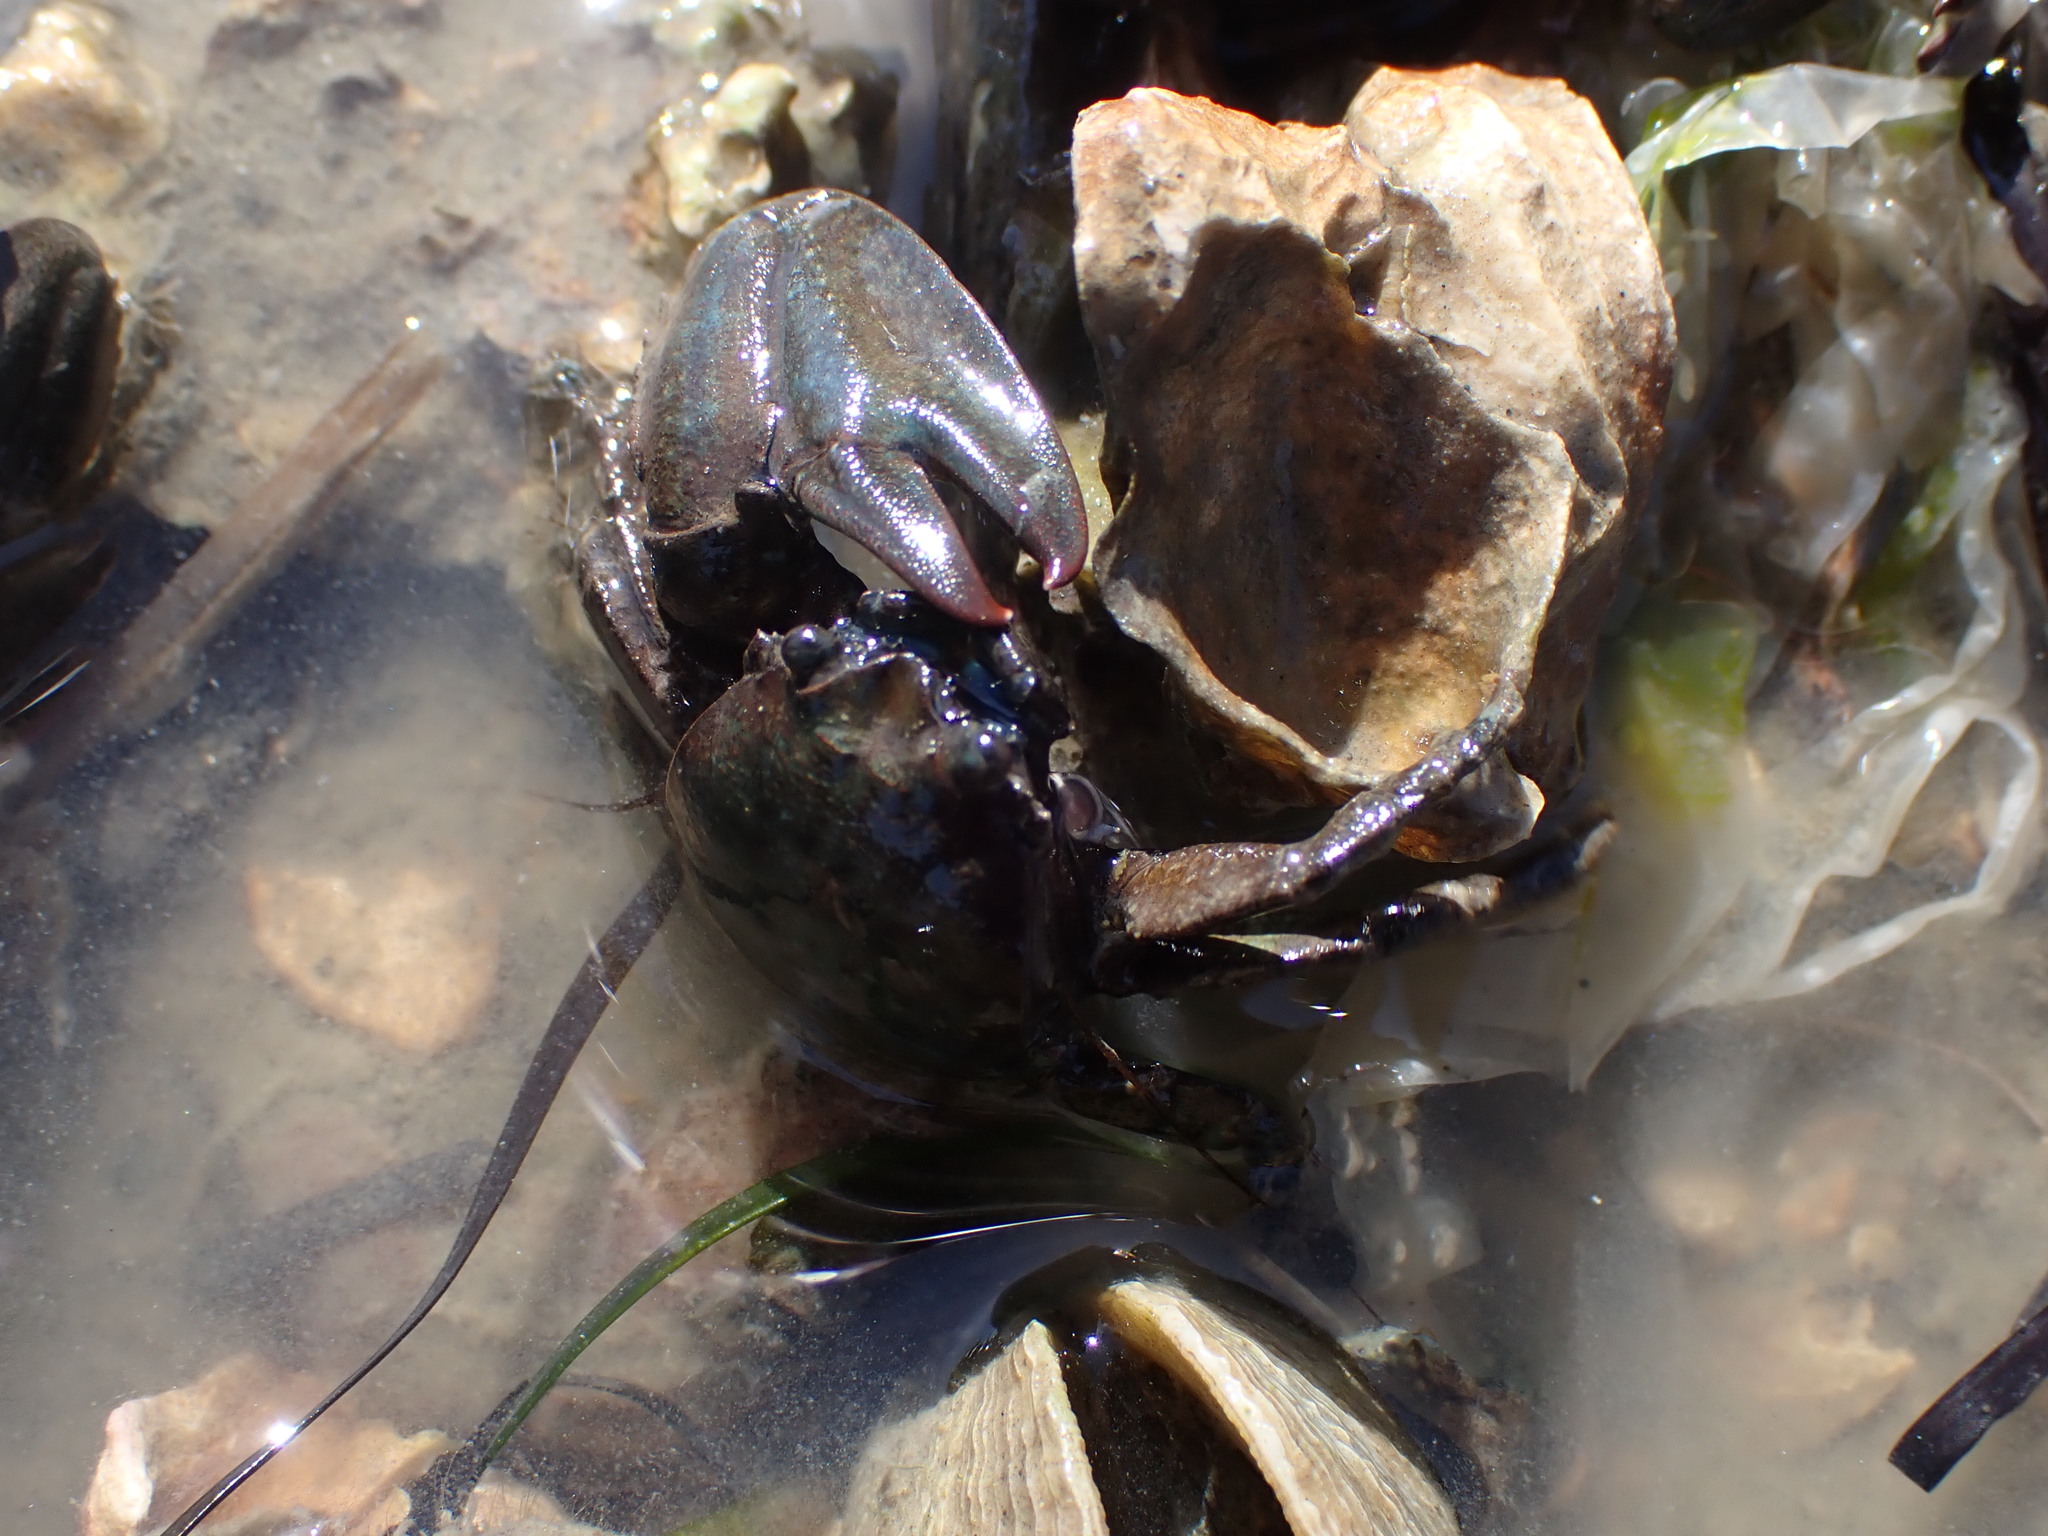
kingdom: Animalia
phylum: Arthropoda
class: Malacostraca
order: Decapoda
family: Porcellanidae
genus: Petrolisthes
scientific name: Petrolisthes elongatus
